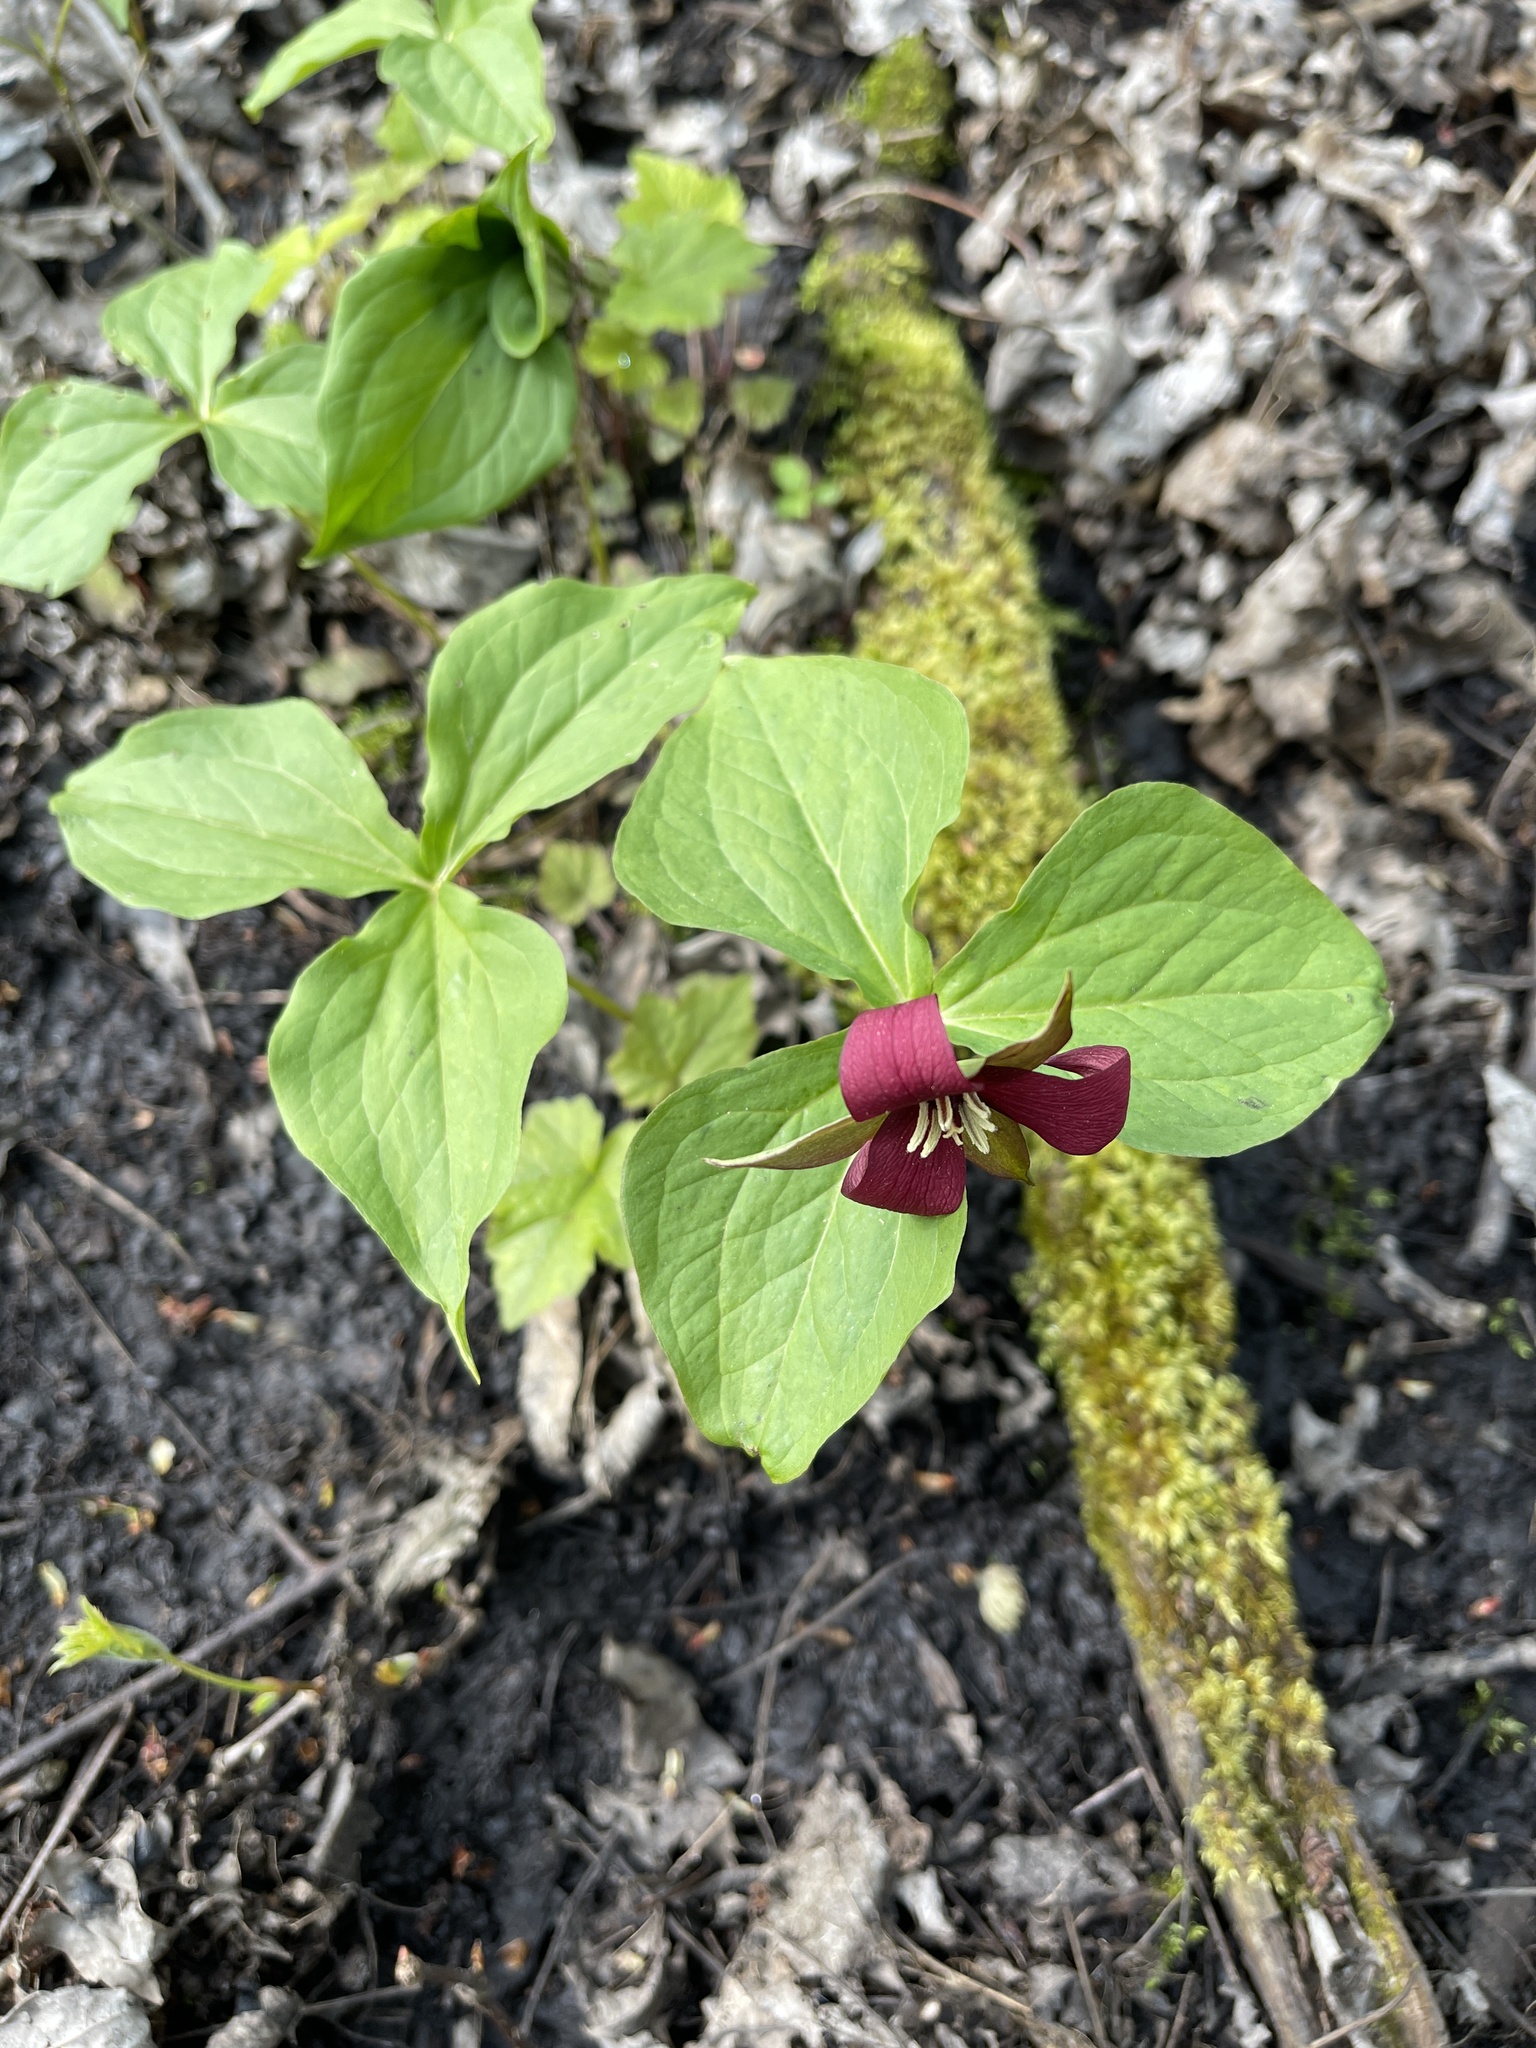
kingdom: Plantae
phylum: Tracheophyta
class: Liliopsida
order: Liliales
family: Melanthiaceae
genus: Trillium
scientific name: Trillium erectum
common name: Purple trillium
